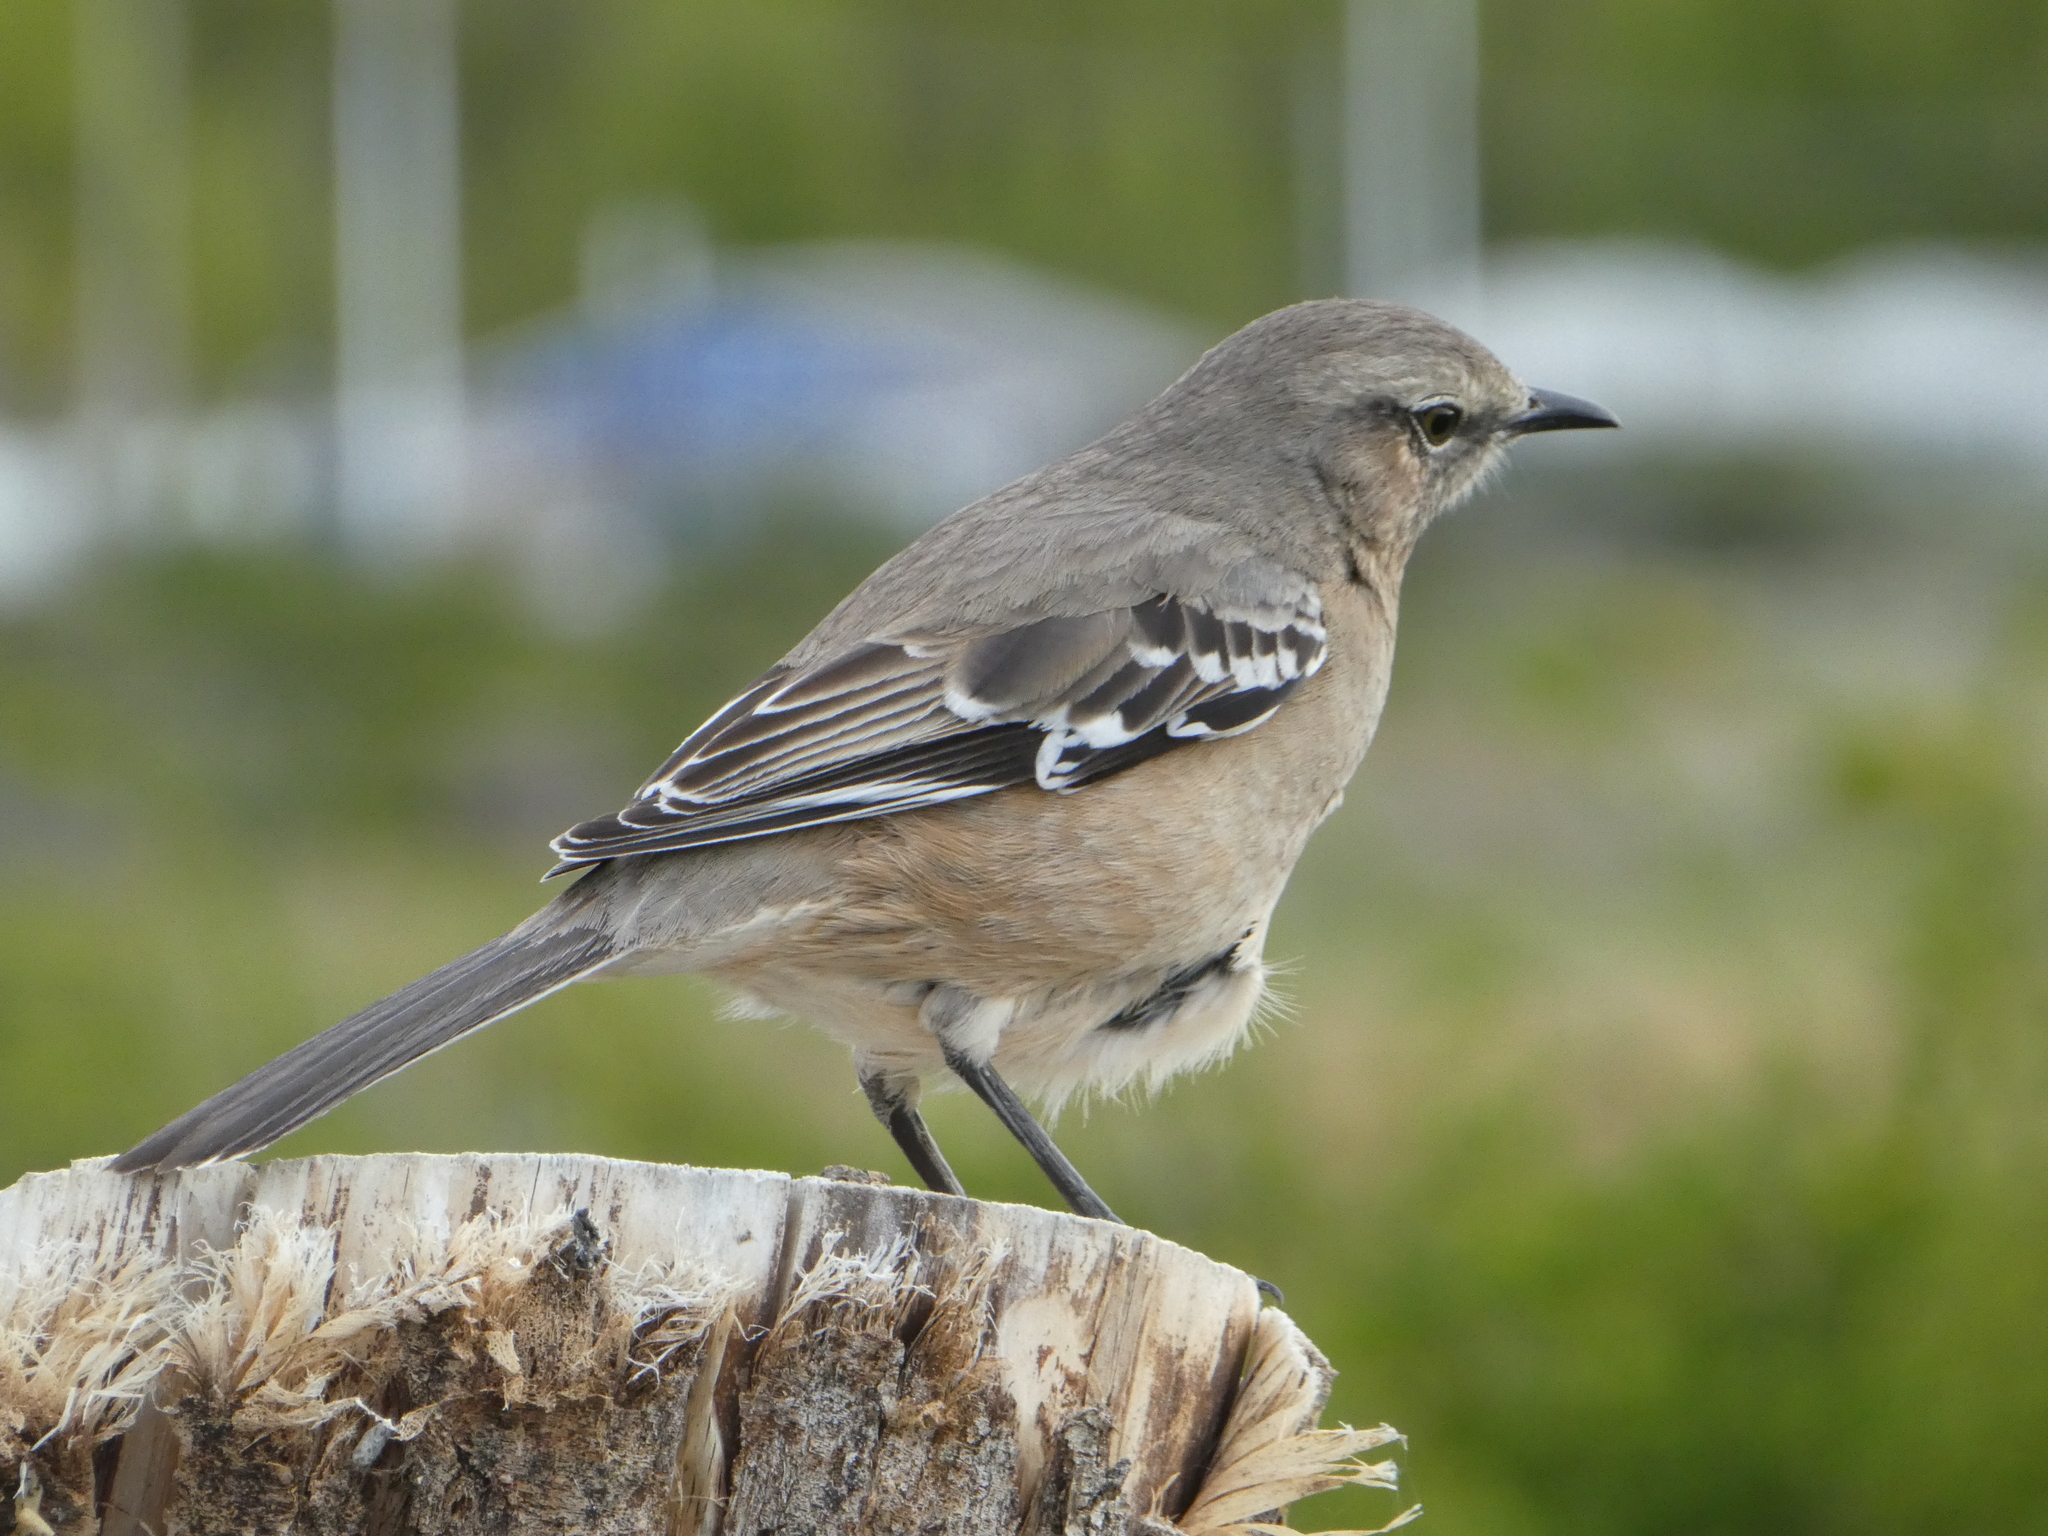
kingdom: Animalia
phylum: Chordata
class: Aves
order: Passeriformes
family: Mimidae
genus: Mimus
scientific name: Mimus patagonicus
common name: Patagonian mockingbird
